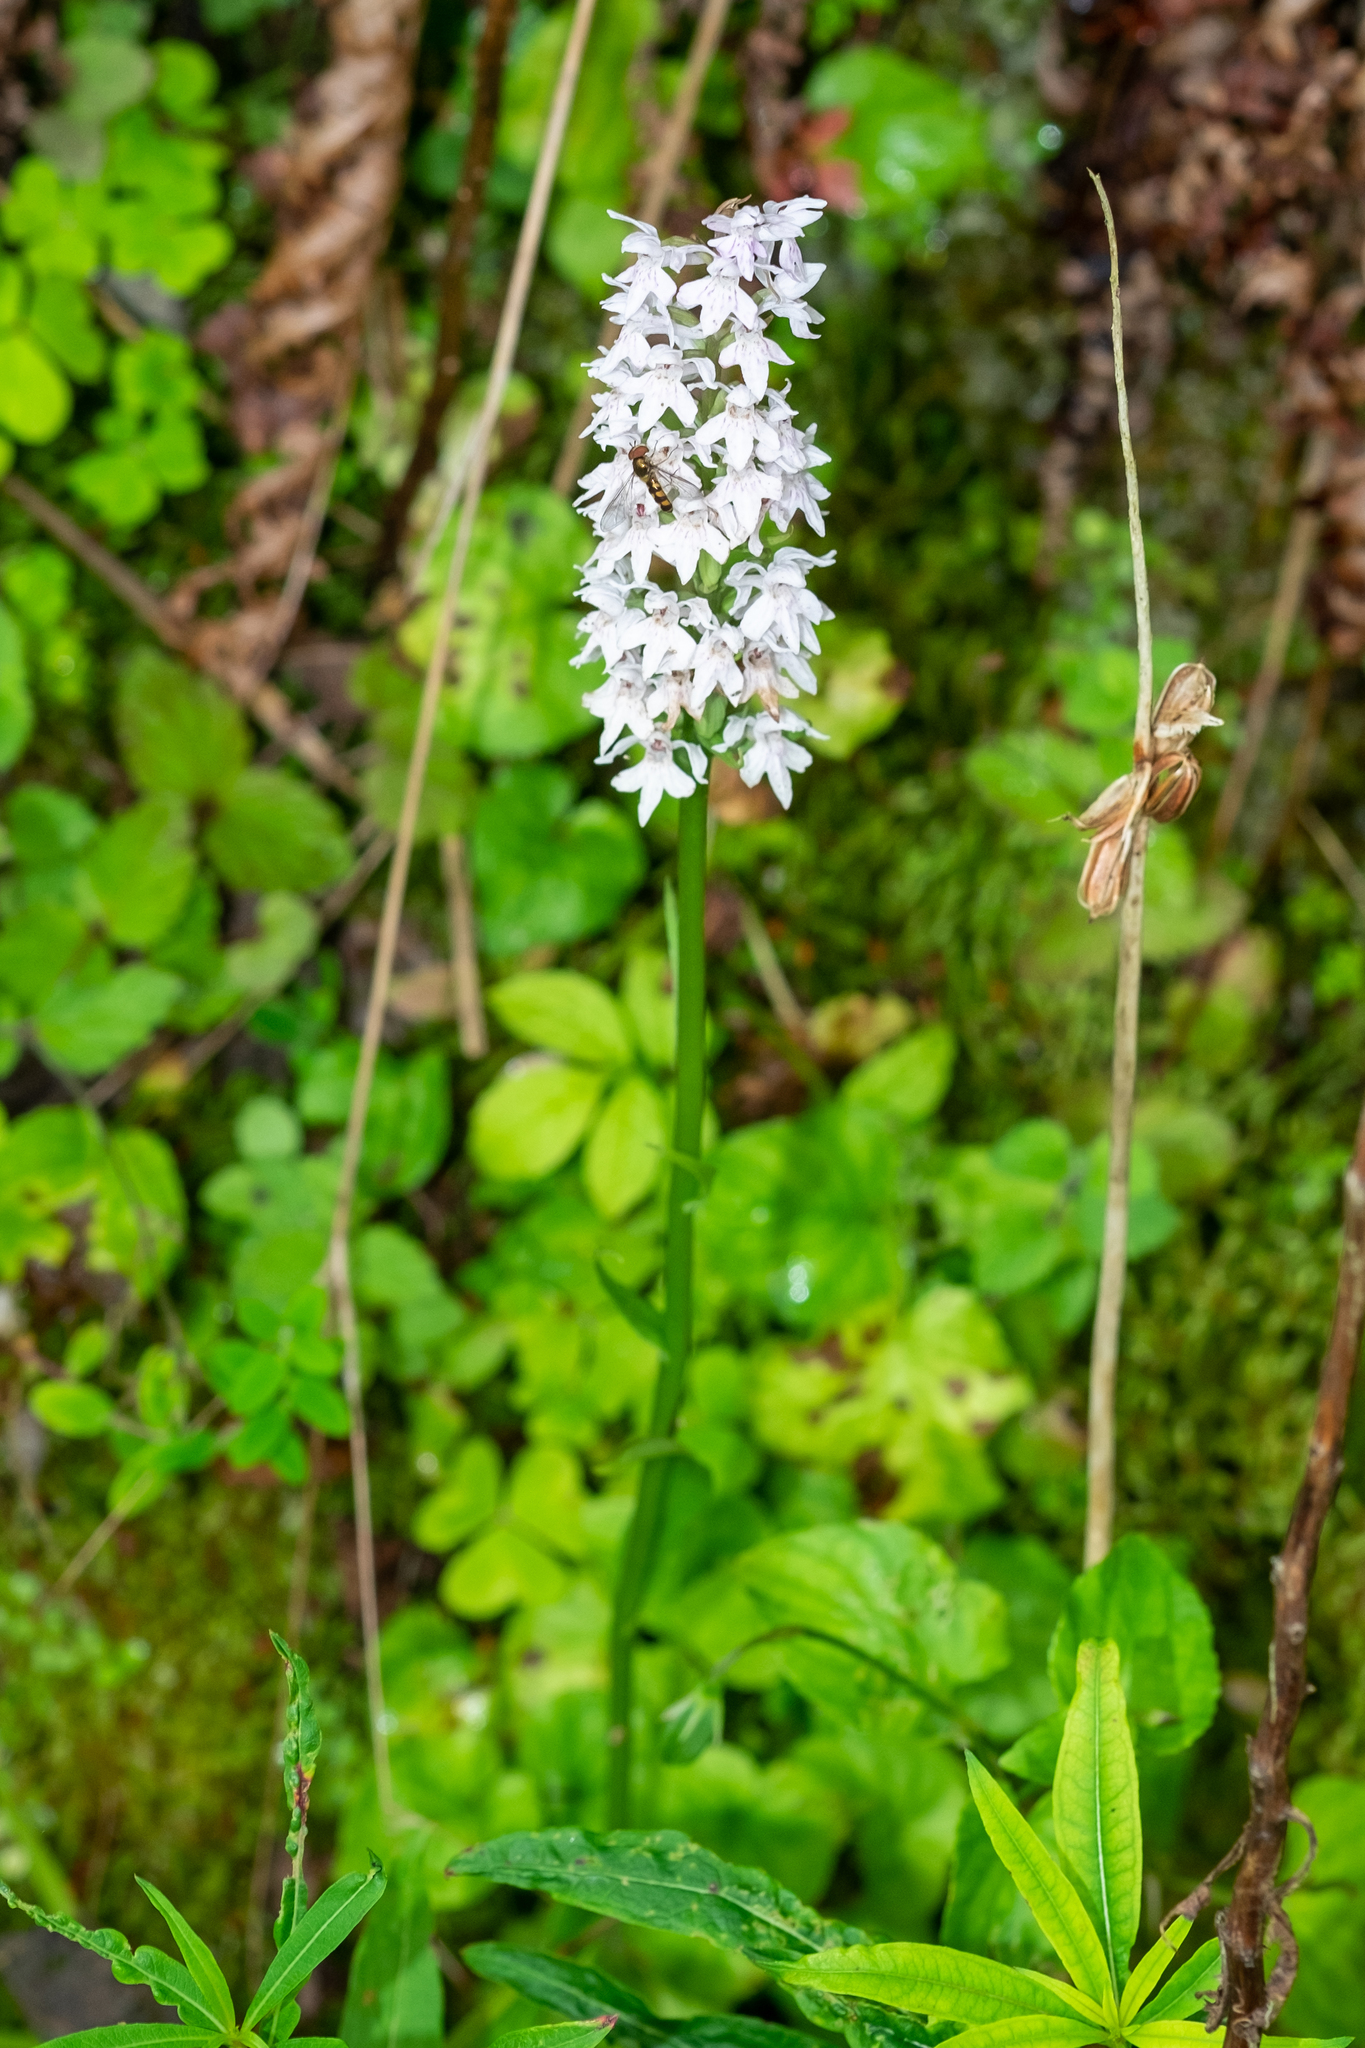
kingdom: Plantae
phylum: Tracheophyta
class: Liliopsida
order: Asparagales
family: Orchidaceae
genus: Dactylorhiza
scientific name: Dactylorhiza maculata
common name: Heath spotted-orchid
